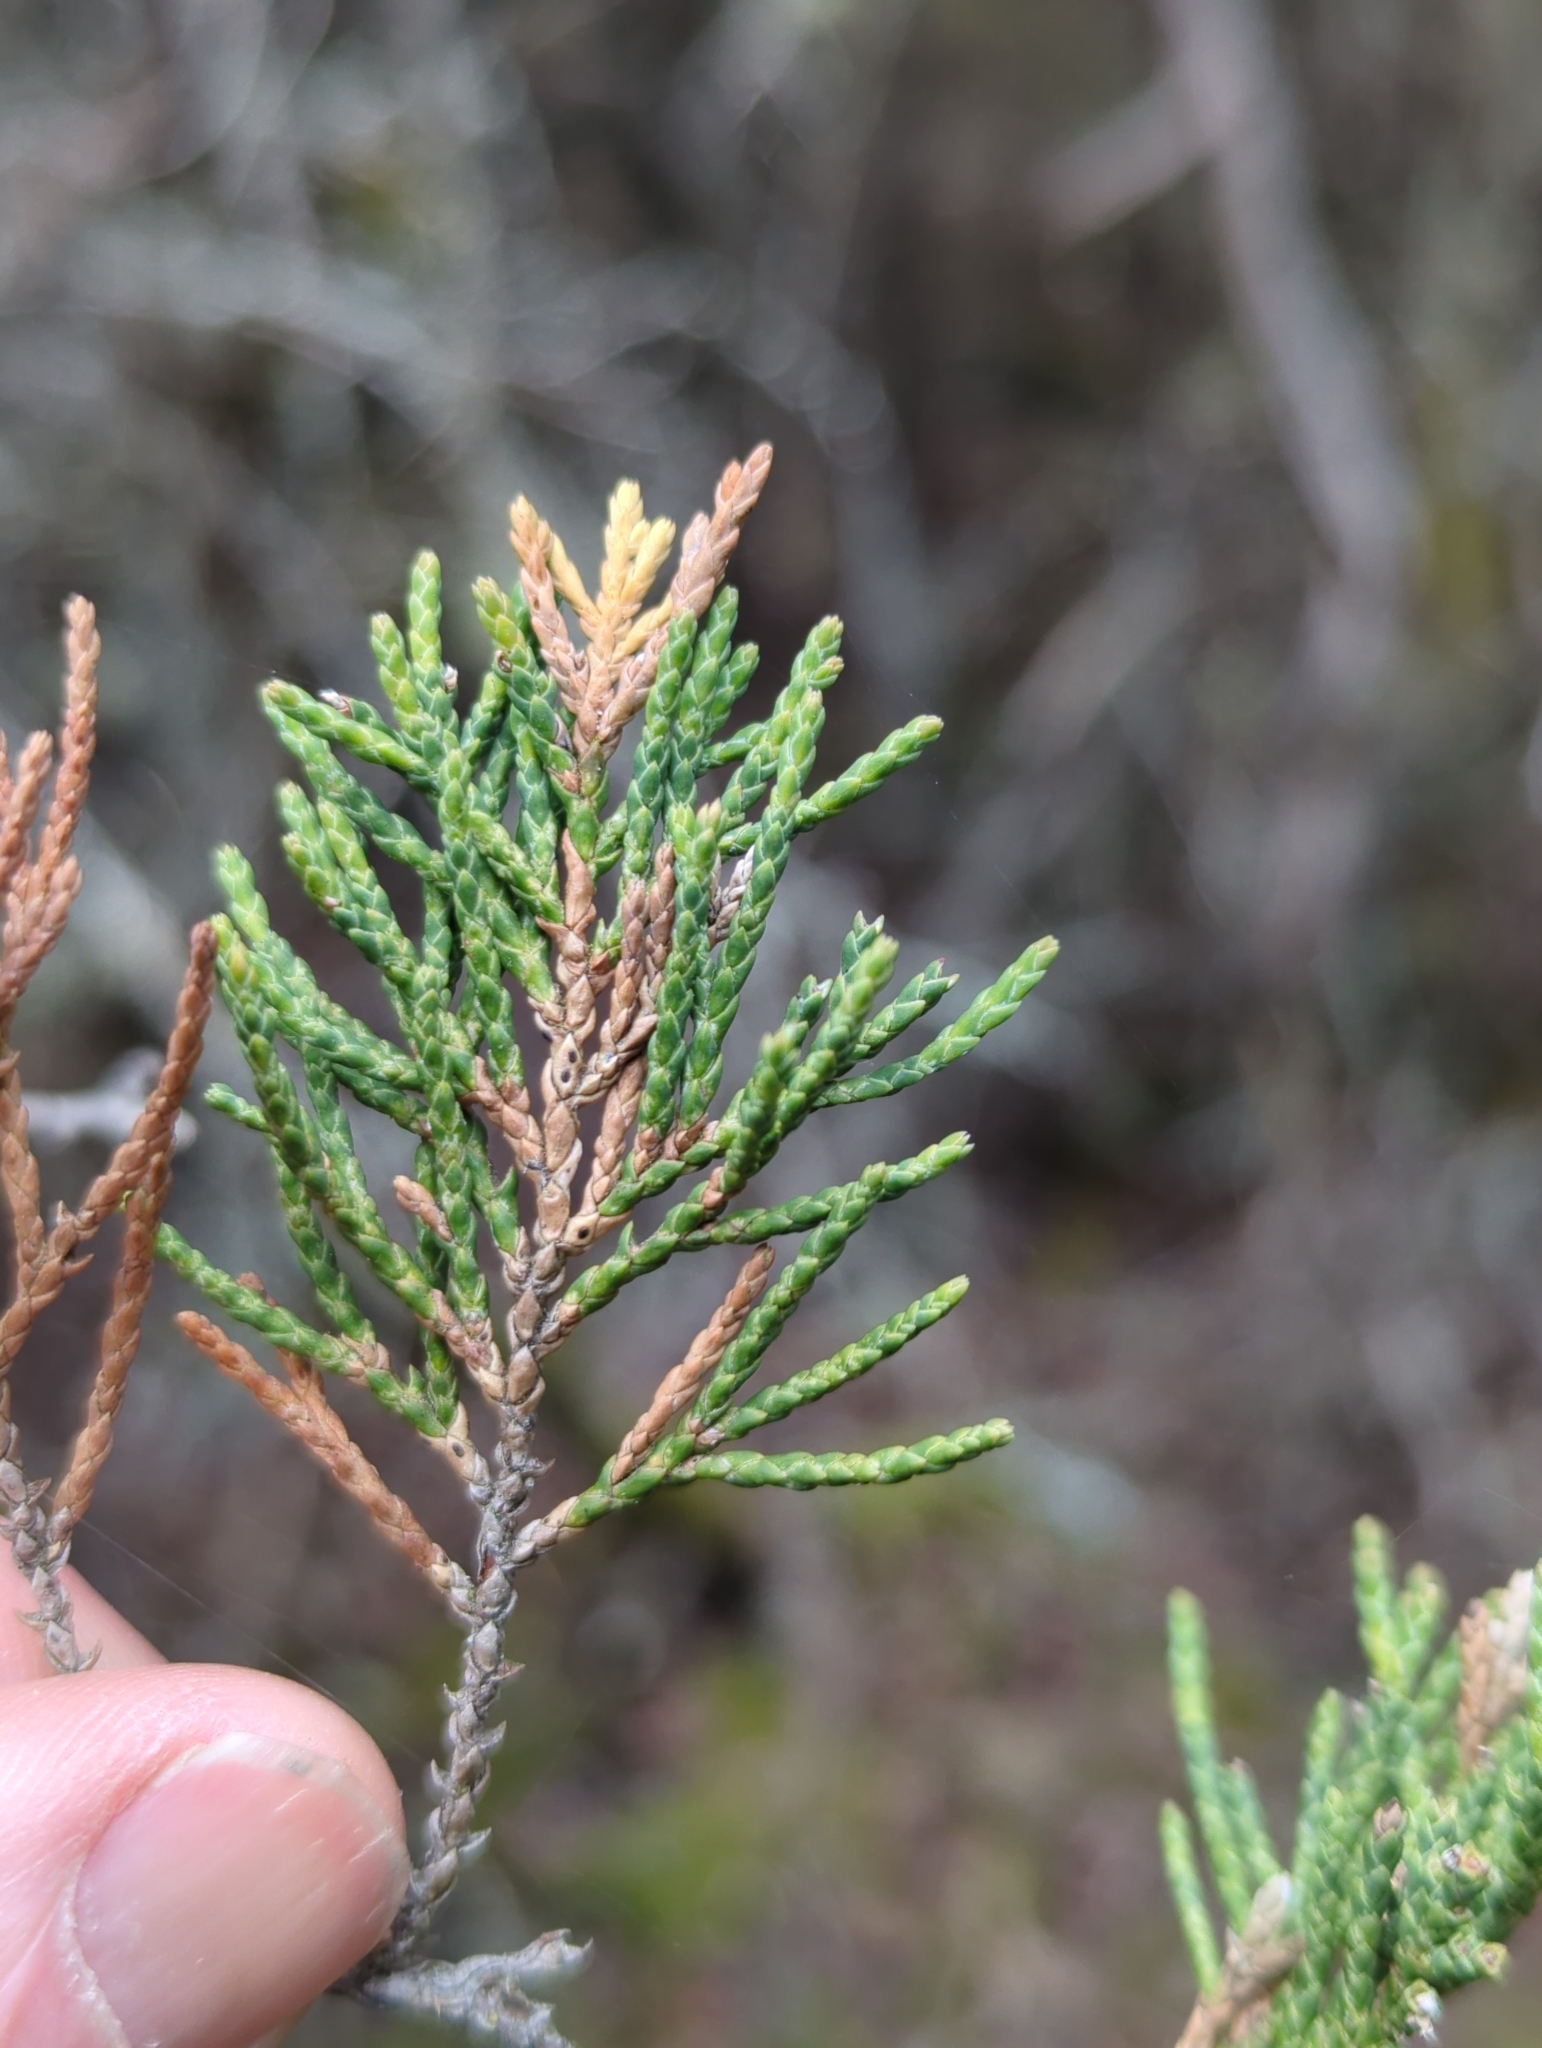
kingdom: Plantae
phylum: Tracheophyta
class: Pinopsida
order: Pinales
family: Cupressaceae
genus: Juniperus
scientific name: Juniperus scopulorum
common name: Rocky mountain juniper
